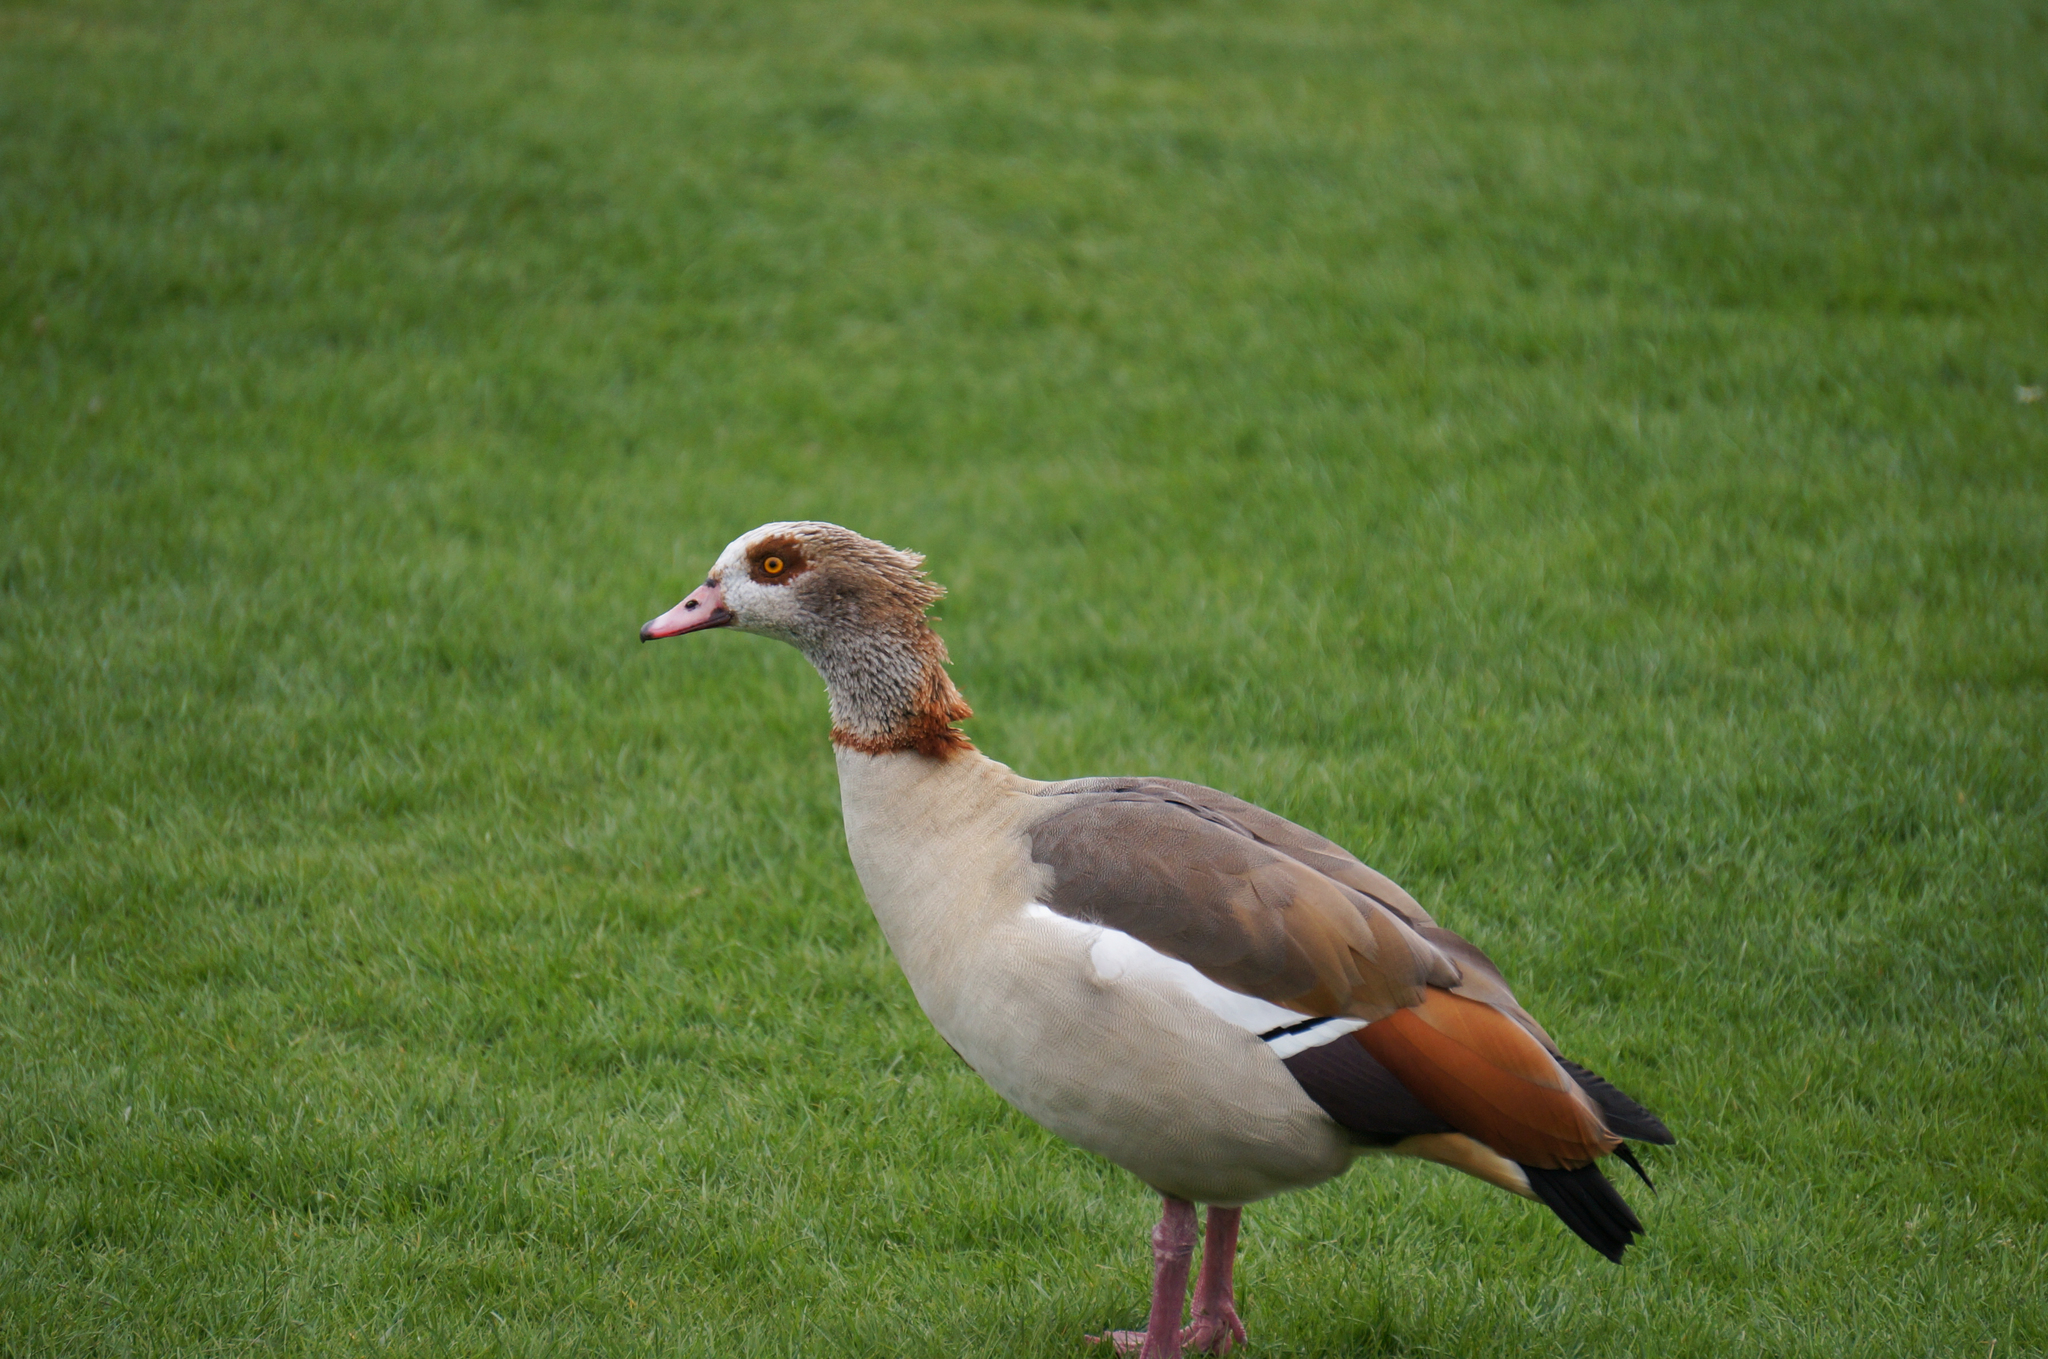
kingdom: Animalia
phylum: Chordata
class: Aves
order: Anseriformes
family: Anatidae
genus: Alopochen
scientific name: Alopochen aegyptiaca
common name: Egyptian goose
